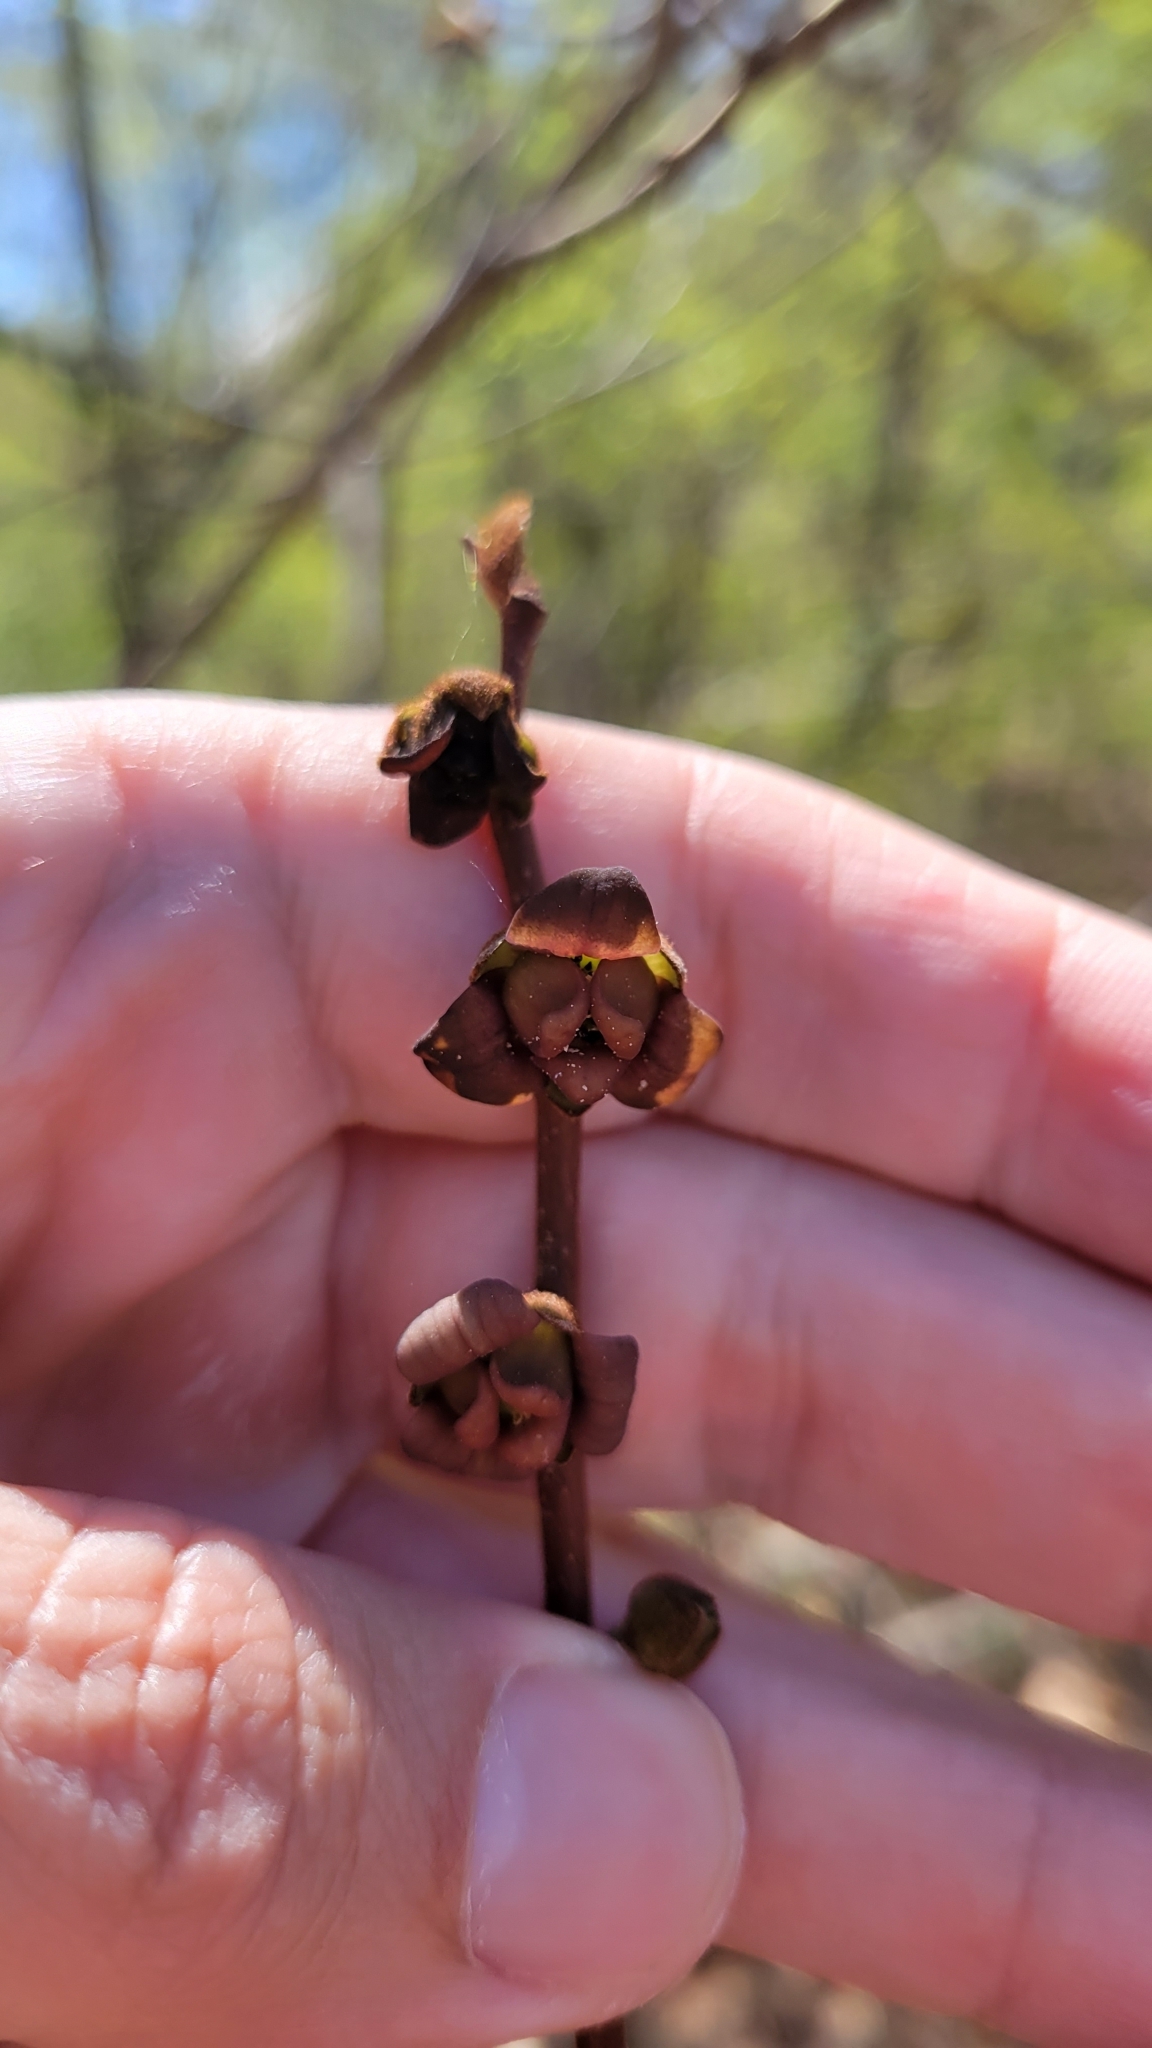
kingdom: Plantae
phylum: Tracheophyta
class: Magnoliopsida
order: Magnoliales
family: Annonaceae
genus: Asimina
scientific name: Asimina parviflora
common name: Dwarf pawpaw
